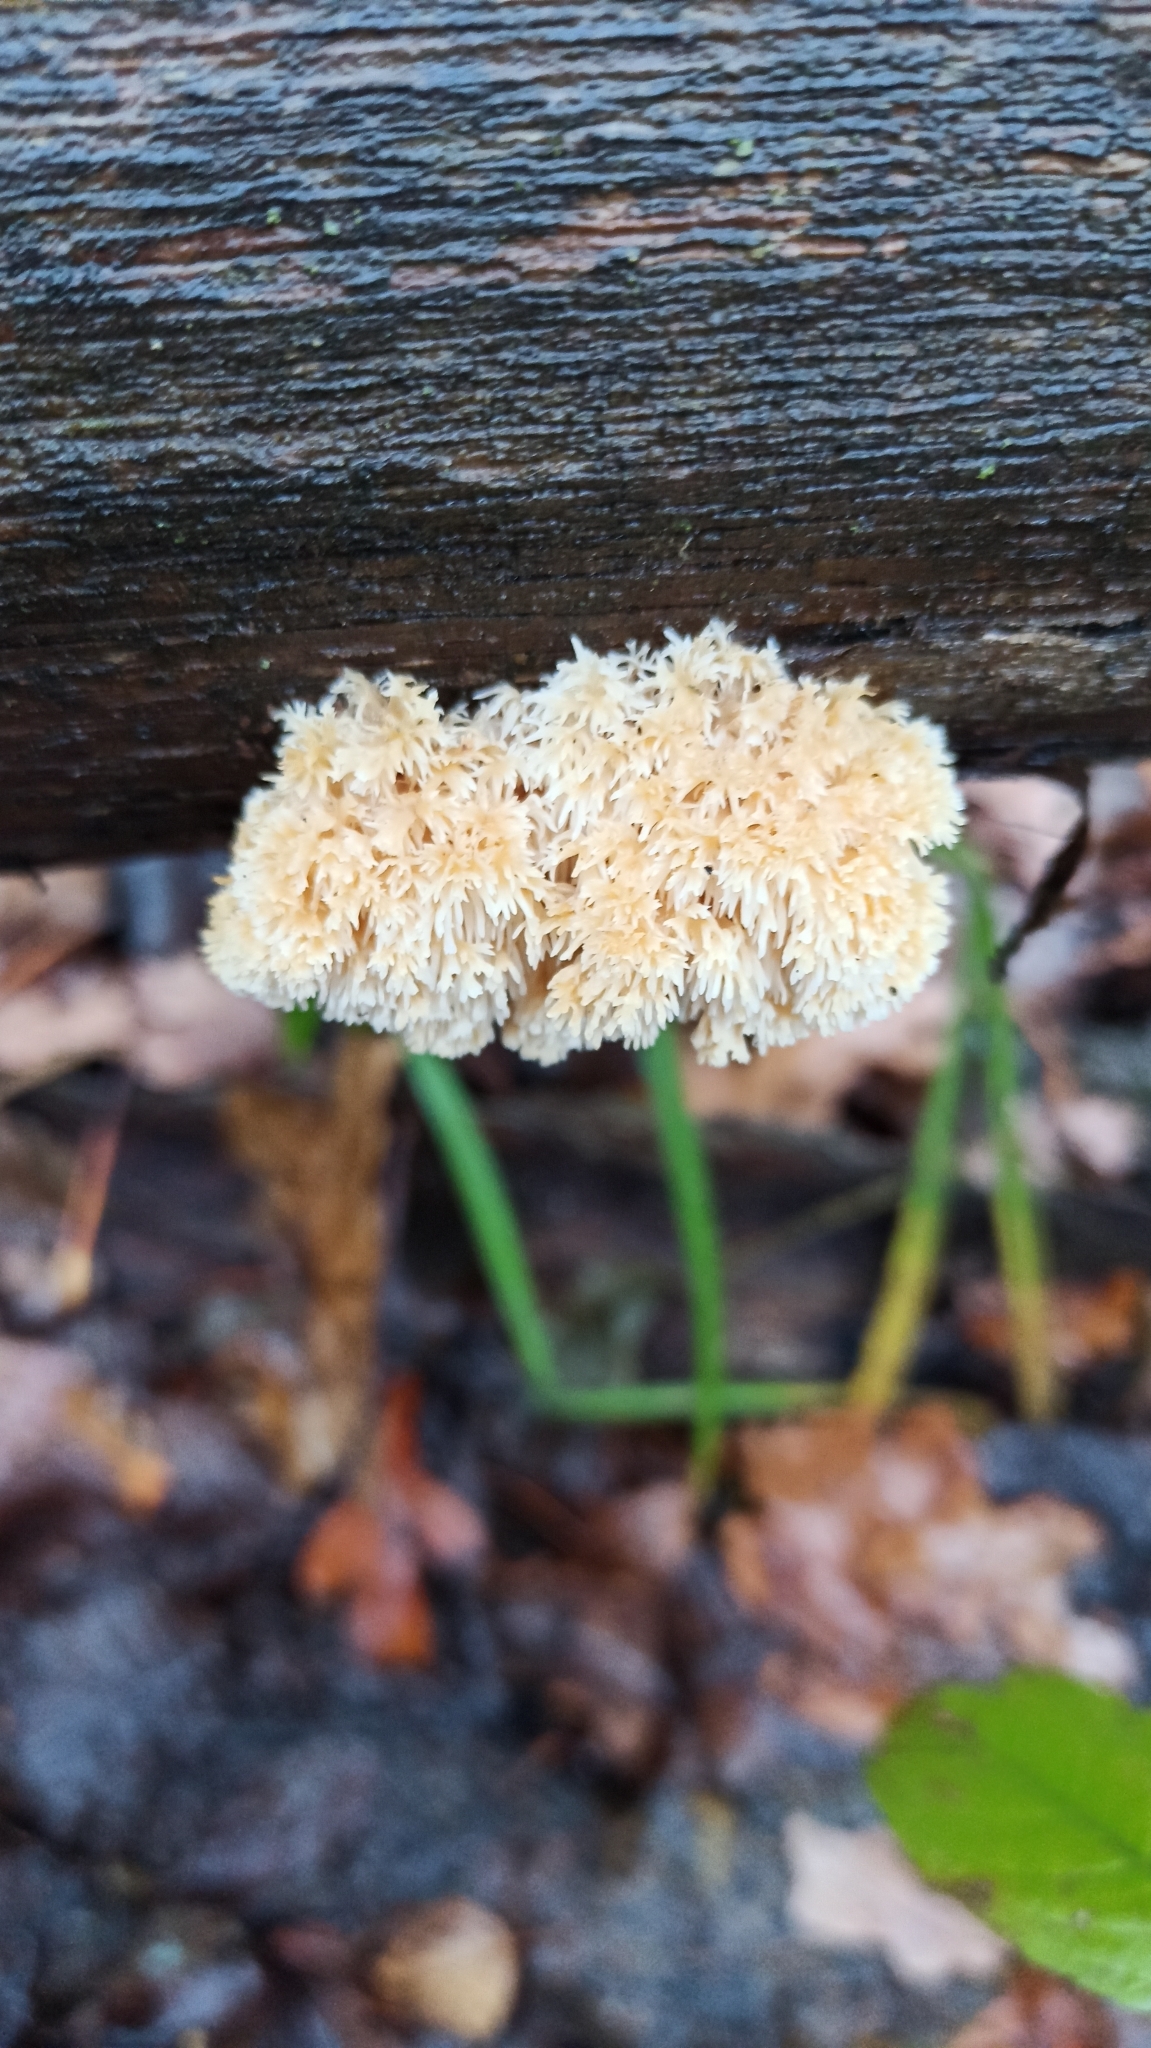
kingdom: Fungi
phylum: Basidiomycota
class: Agaricomycetes
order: Russulales
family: Hericiaceae
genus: Hericium
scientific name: Hericium coralloides
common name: Coral tooth
